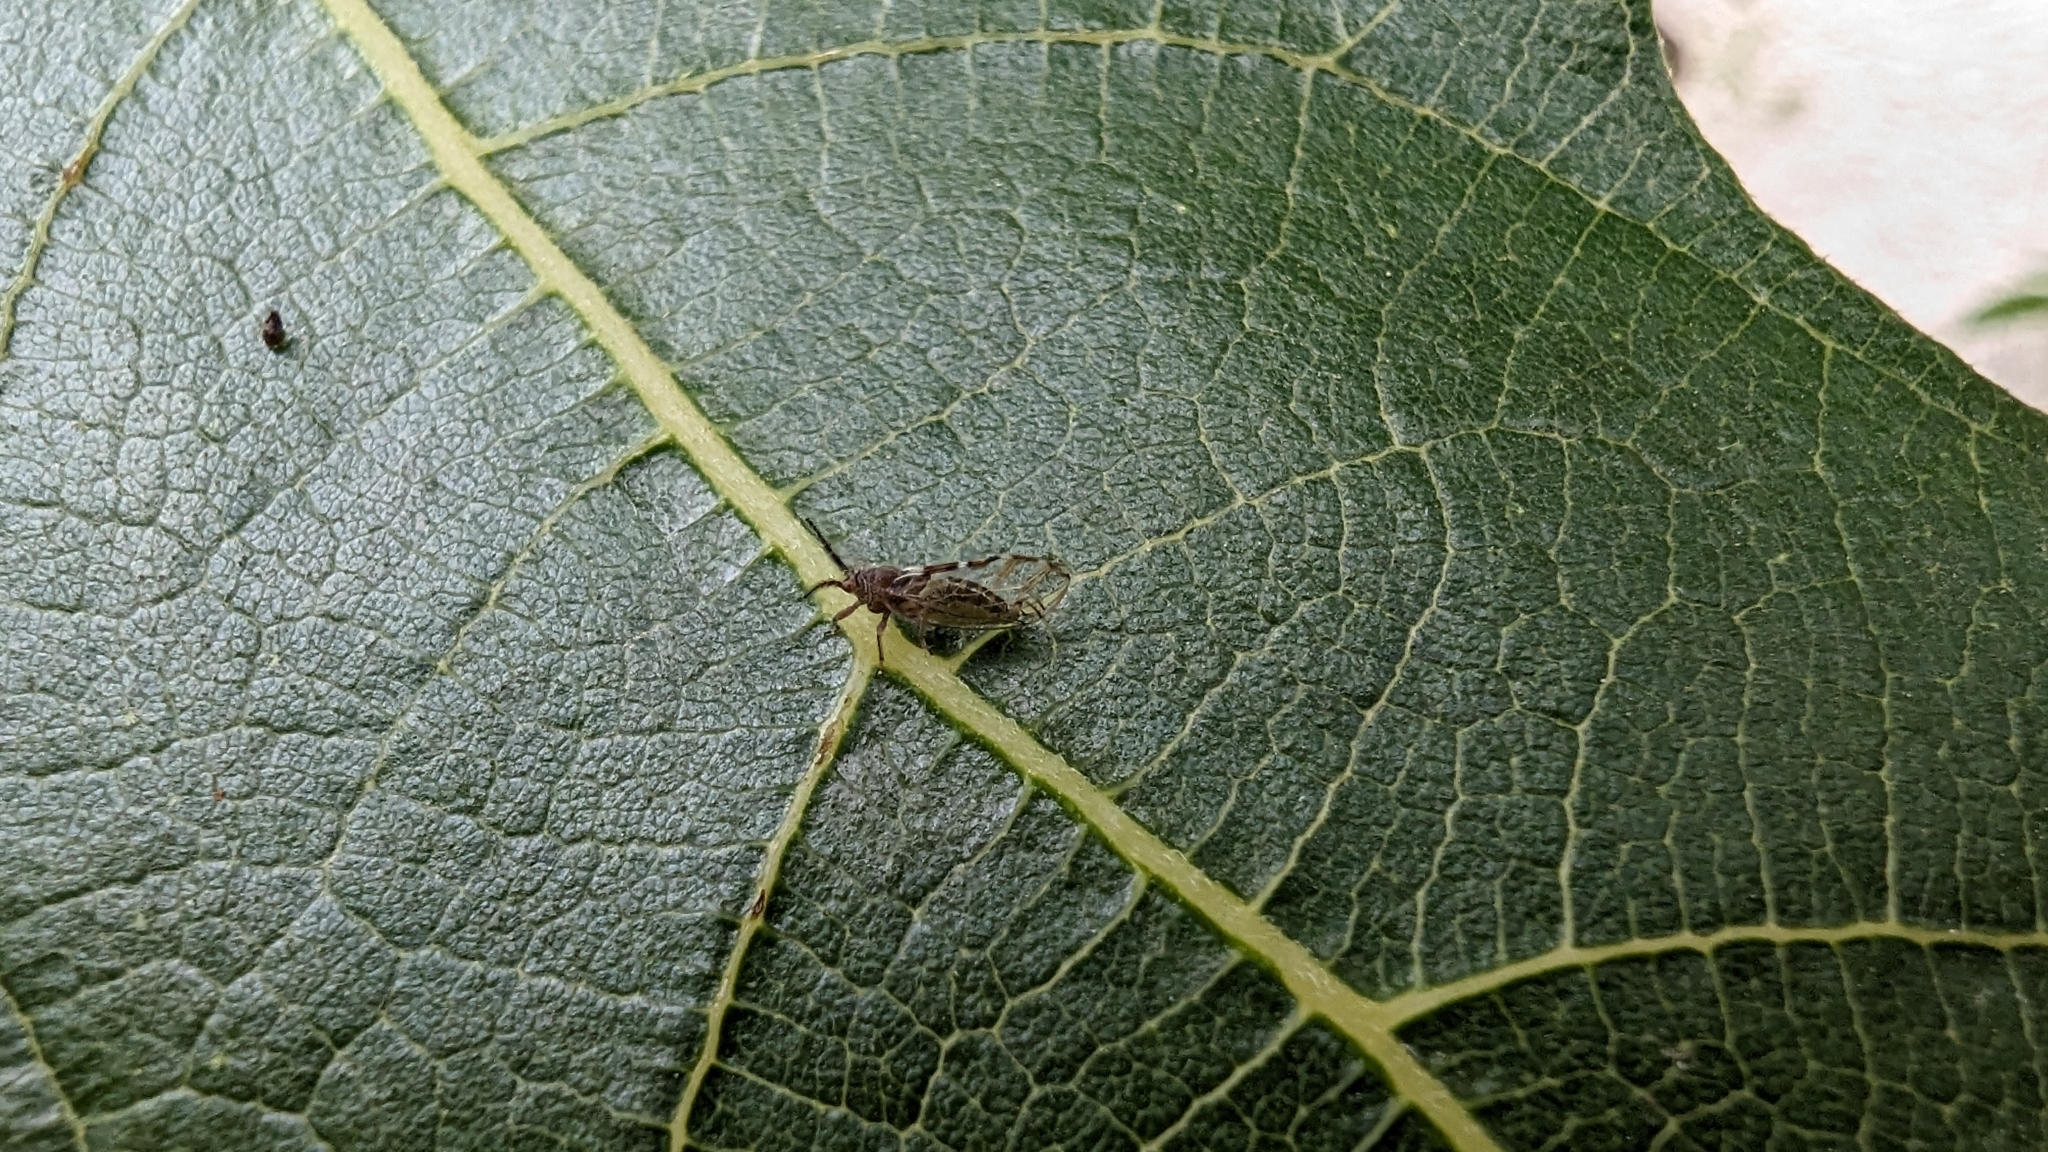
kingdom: Animalia
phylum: Arthropoda
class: Insecta
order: Hemiptera
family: Homotomidae
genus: Homotoma
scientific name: Homotoma ficus
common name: Fig psillid
